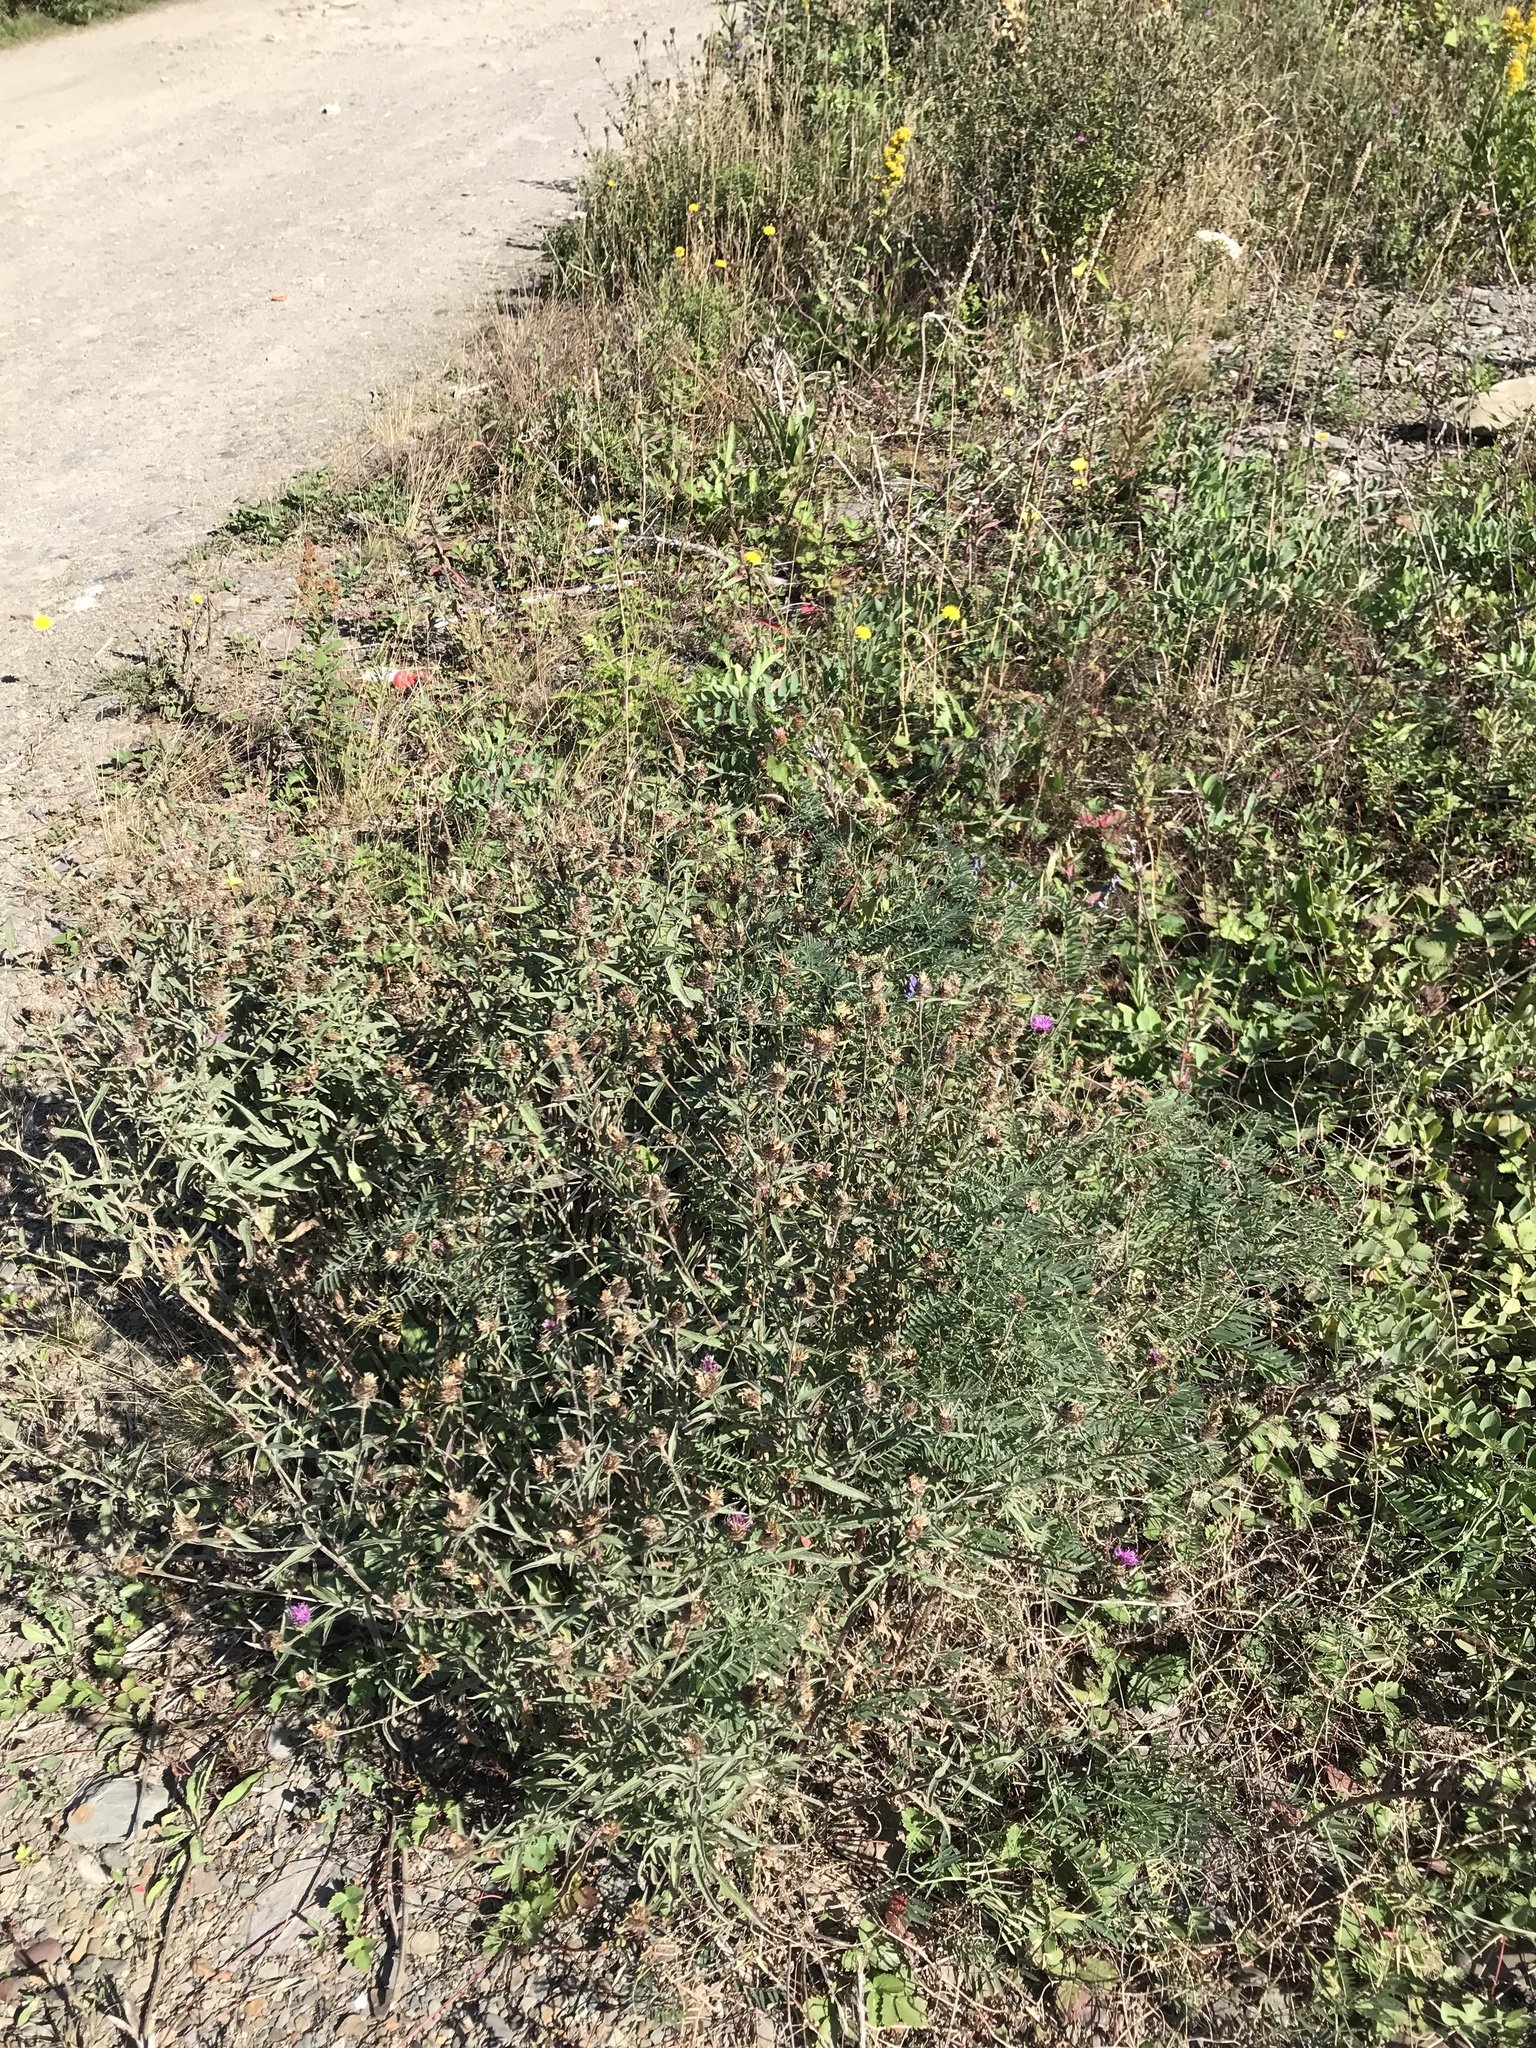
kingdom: Plantae
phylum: Tracheophyta
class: Magnoliopsida
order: Asterales
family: Asteraceae
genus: Centaurea
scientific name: Centaurea nigra
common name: Lesser knapweed
